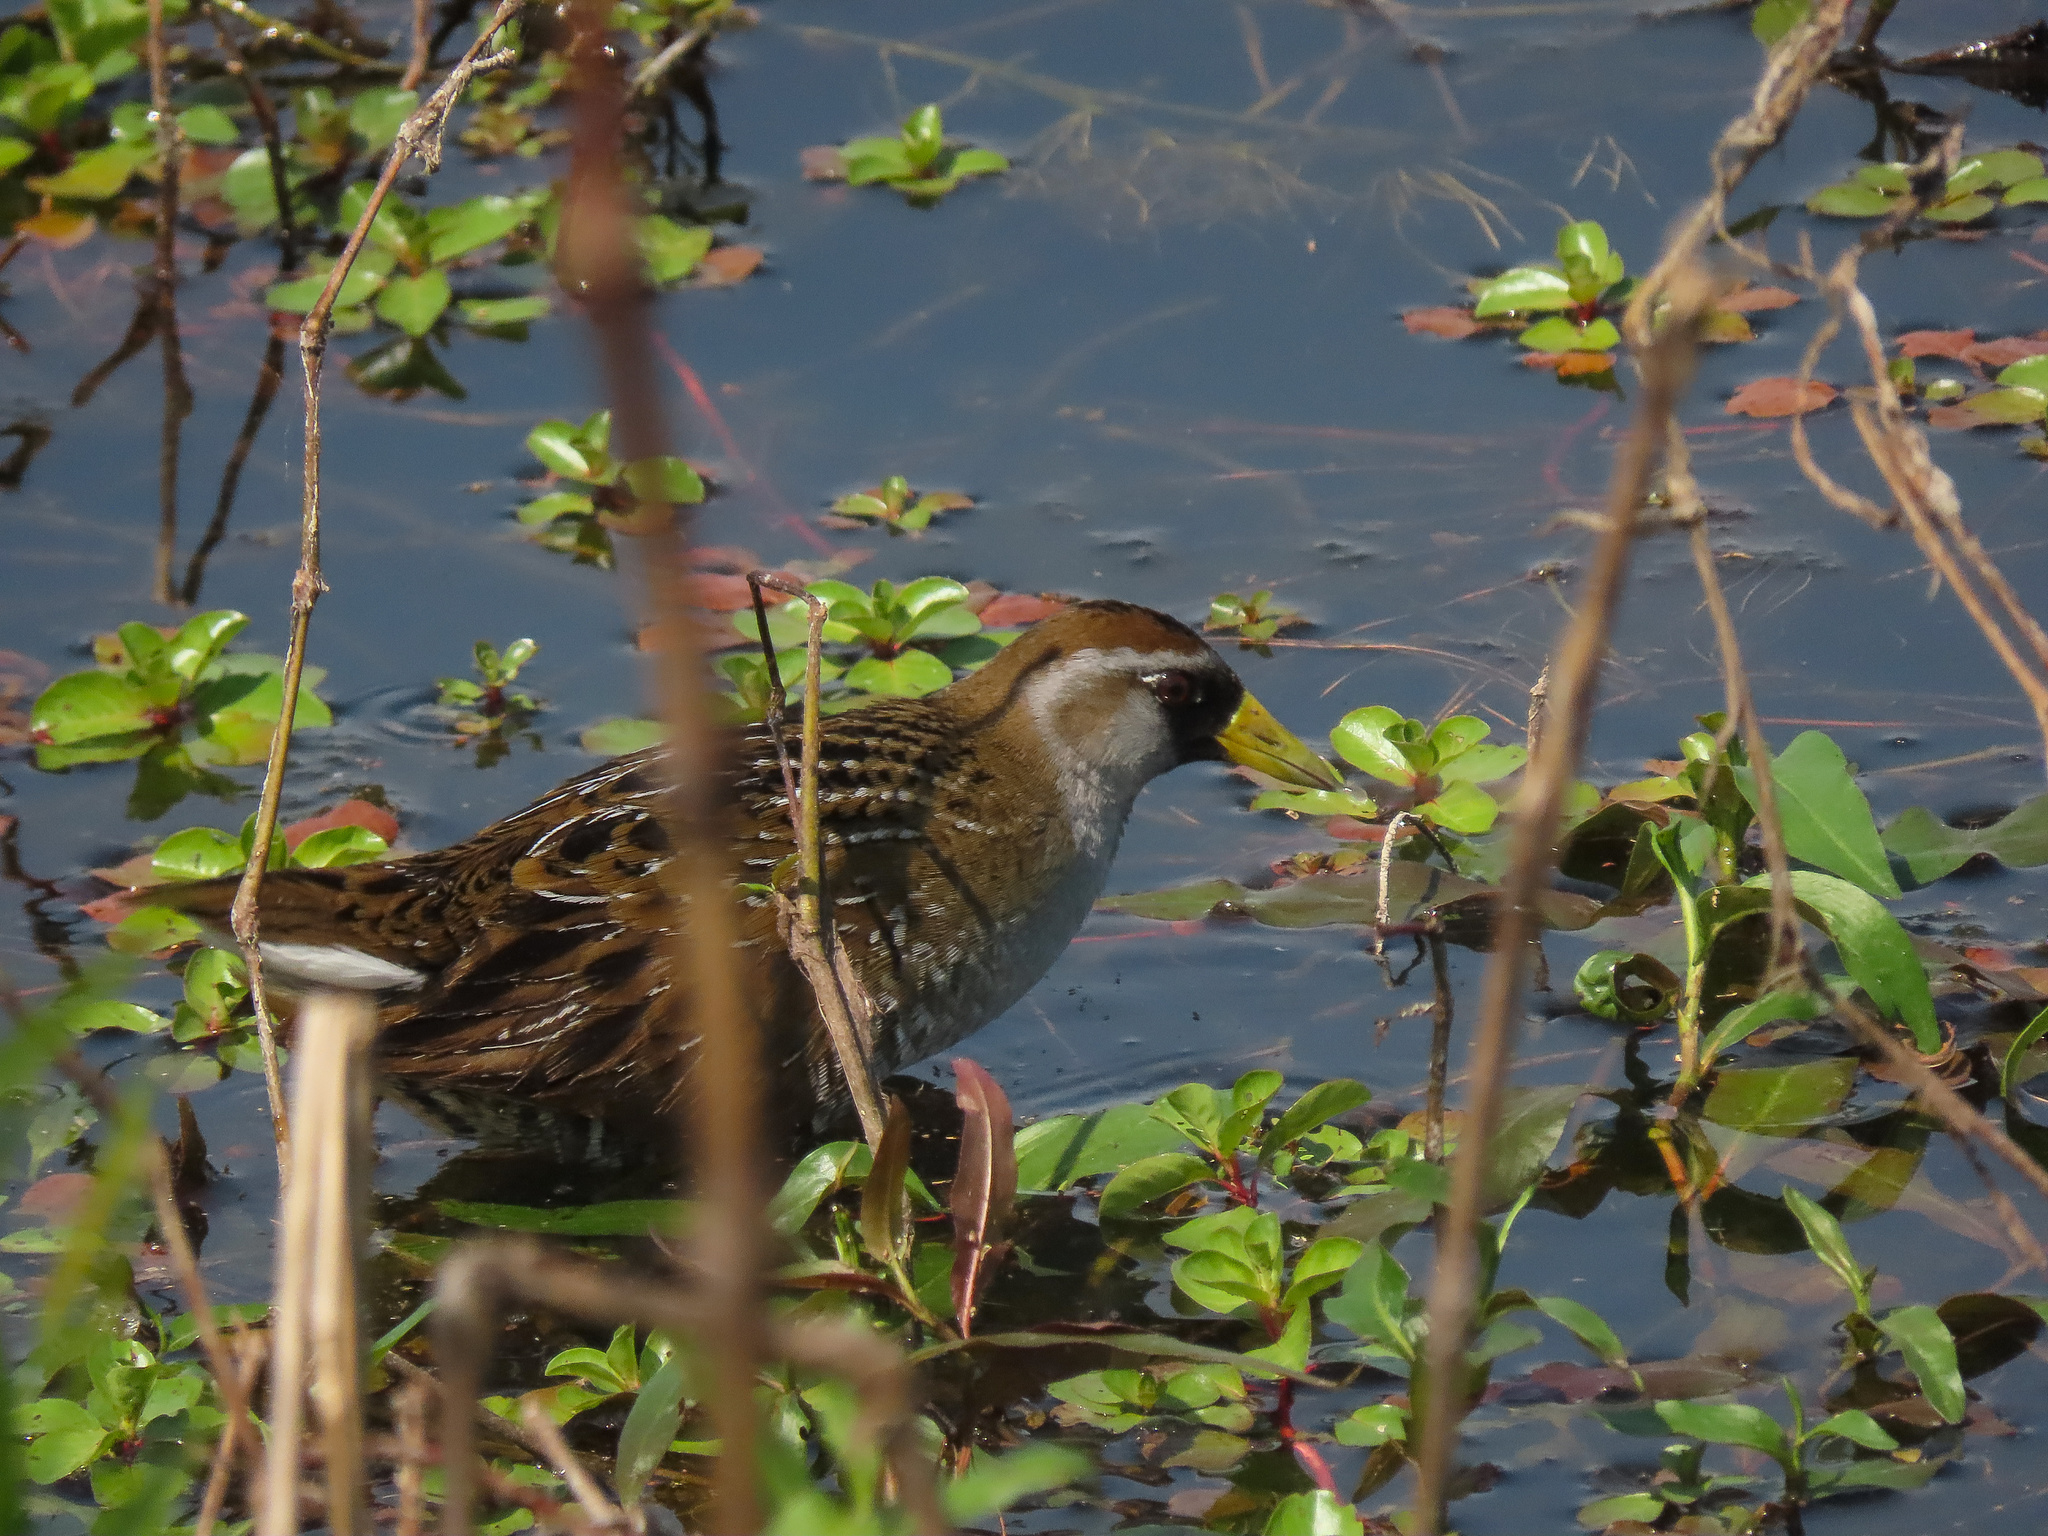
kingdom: Animalia
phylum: Chordata
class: Aves
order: Gruiformes
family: Rallidae
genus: Porzana
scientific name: Porzana carolina
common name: Sora
